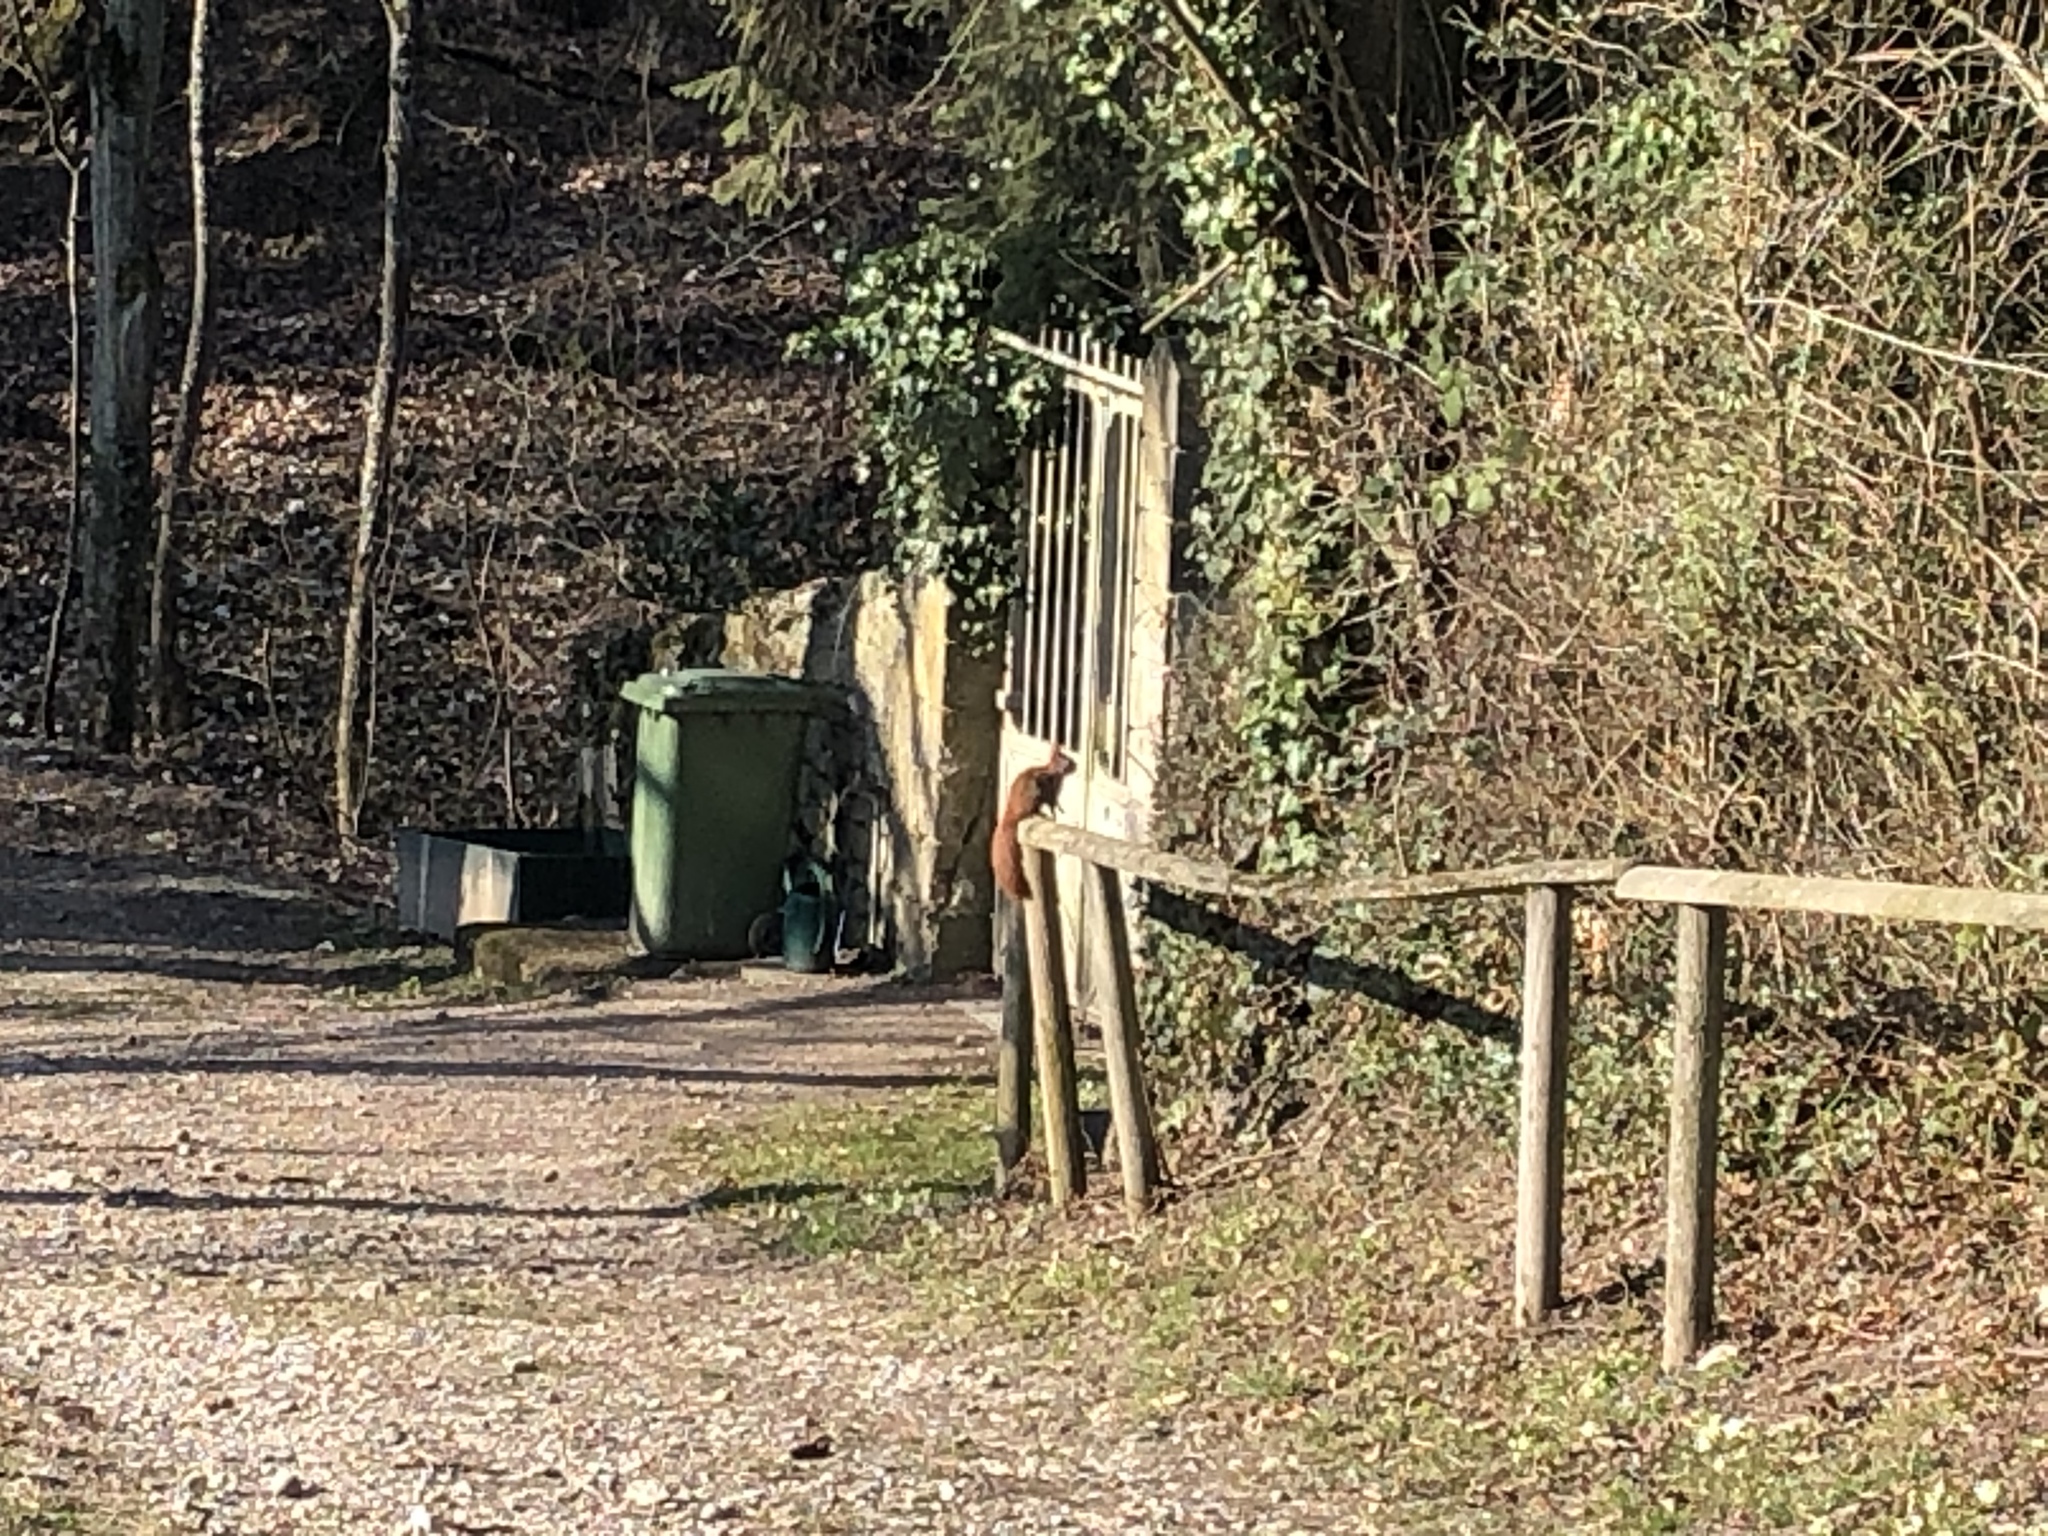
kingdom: Animalia
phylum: Chordata
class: Mammalia
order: Rodentia
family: Sciuridae
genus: Sciurus
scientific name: Sciurus vulgaris
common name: Eurasian red squirrel
